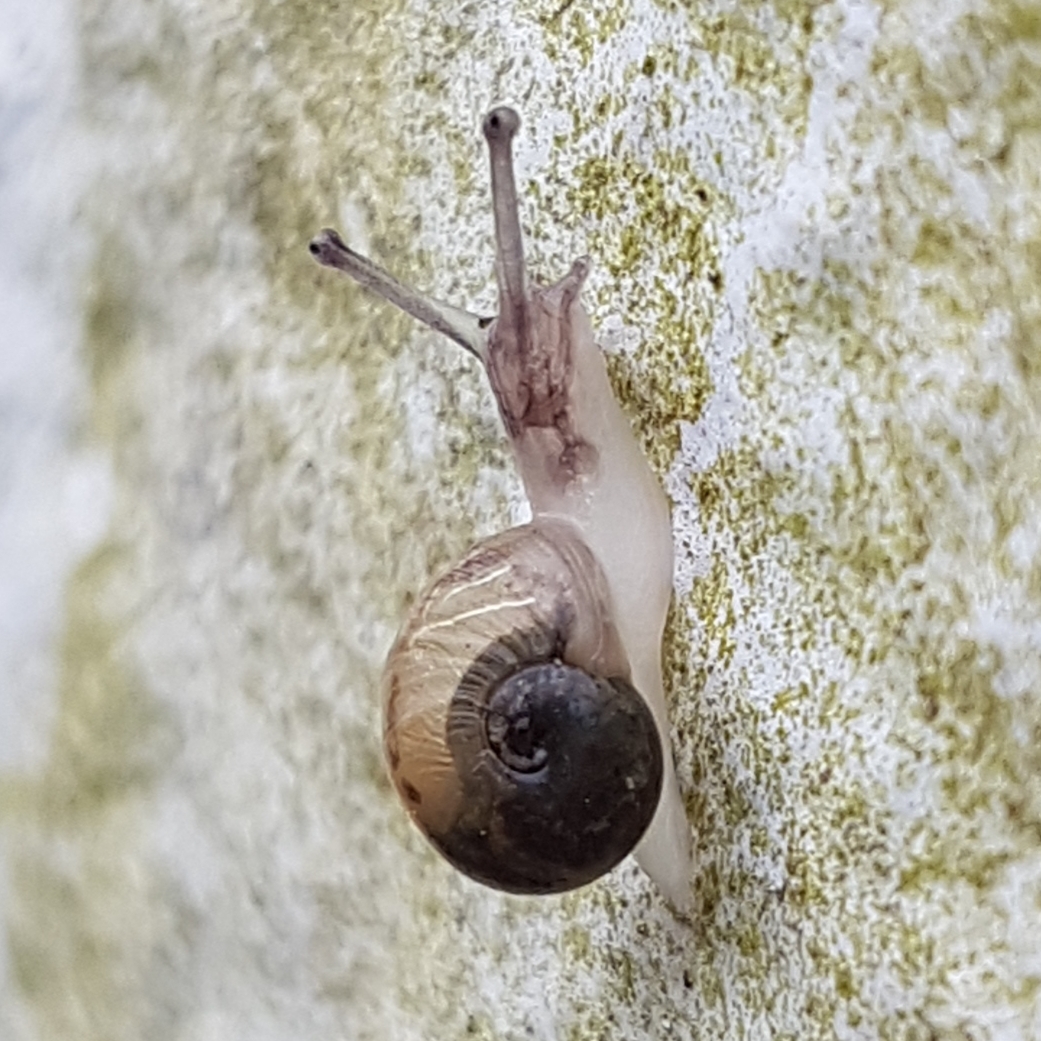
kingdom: Animalia
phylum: Mollusca
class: Gastropoda
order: Stylommatophora
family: Helicidae
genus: Cornu
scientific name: Cornu aspersum
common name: Brown garden snail
